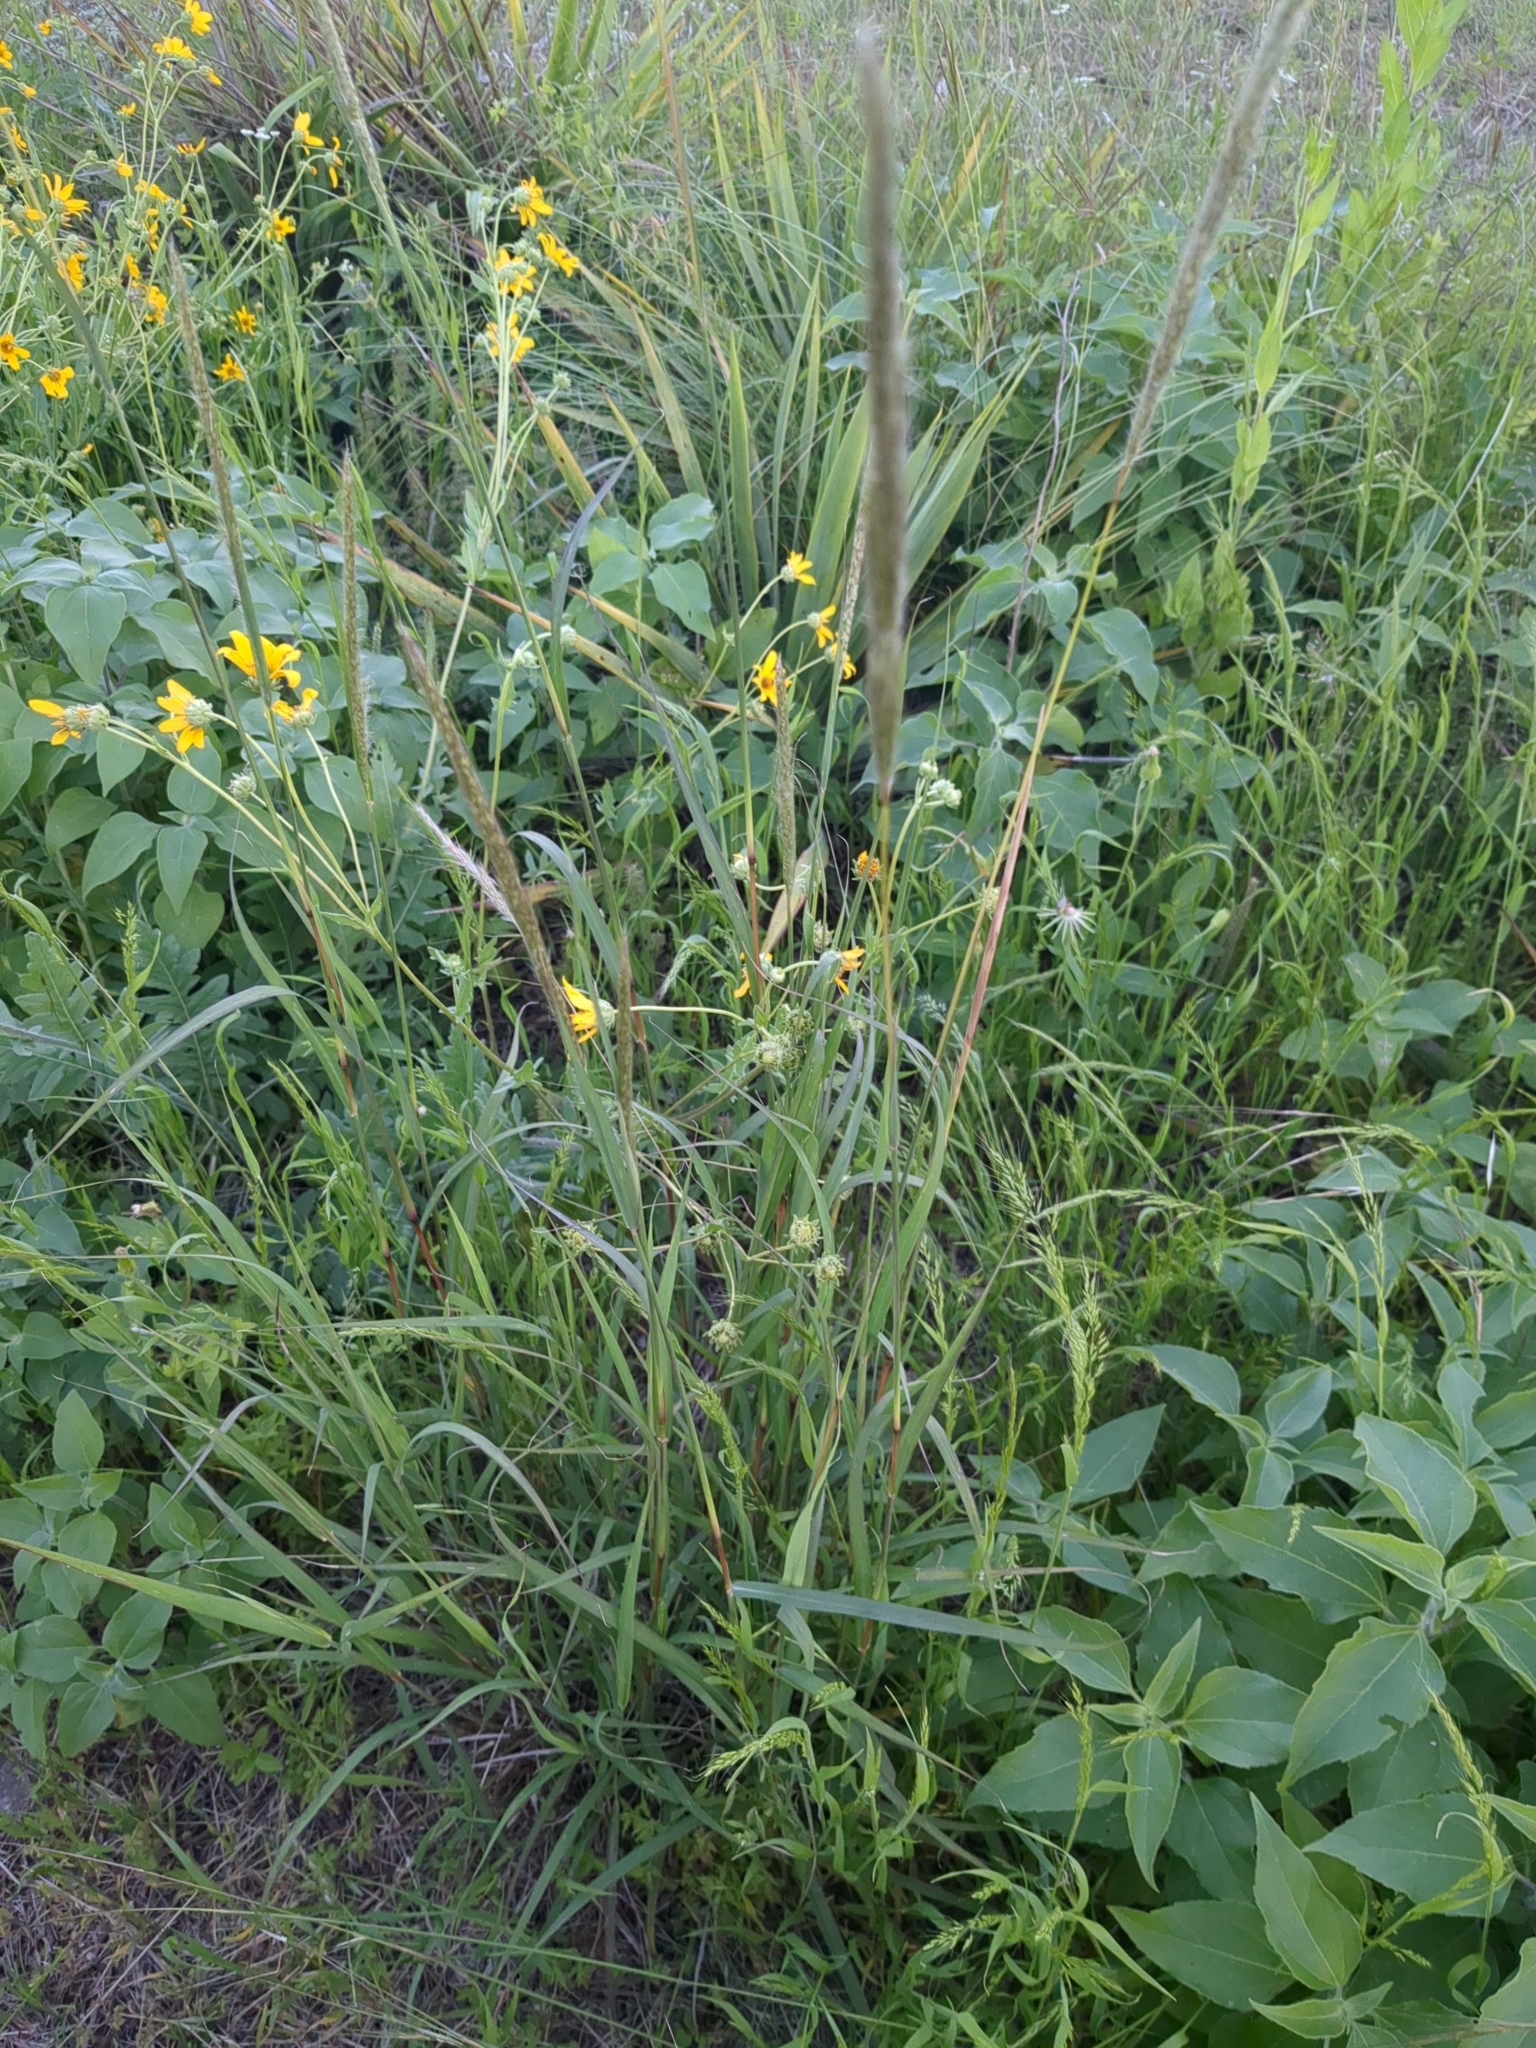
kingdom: Plantae
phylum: Tracheophyta
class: Liliopsida
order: Poales
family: Poaceae
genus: Bothriochloa
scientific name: Bothriochloa longipaniculata
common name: Longspike silver bluestem
